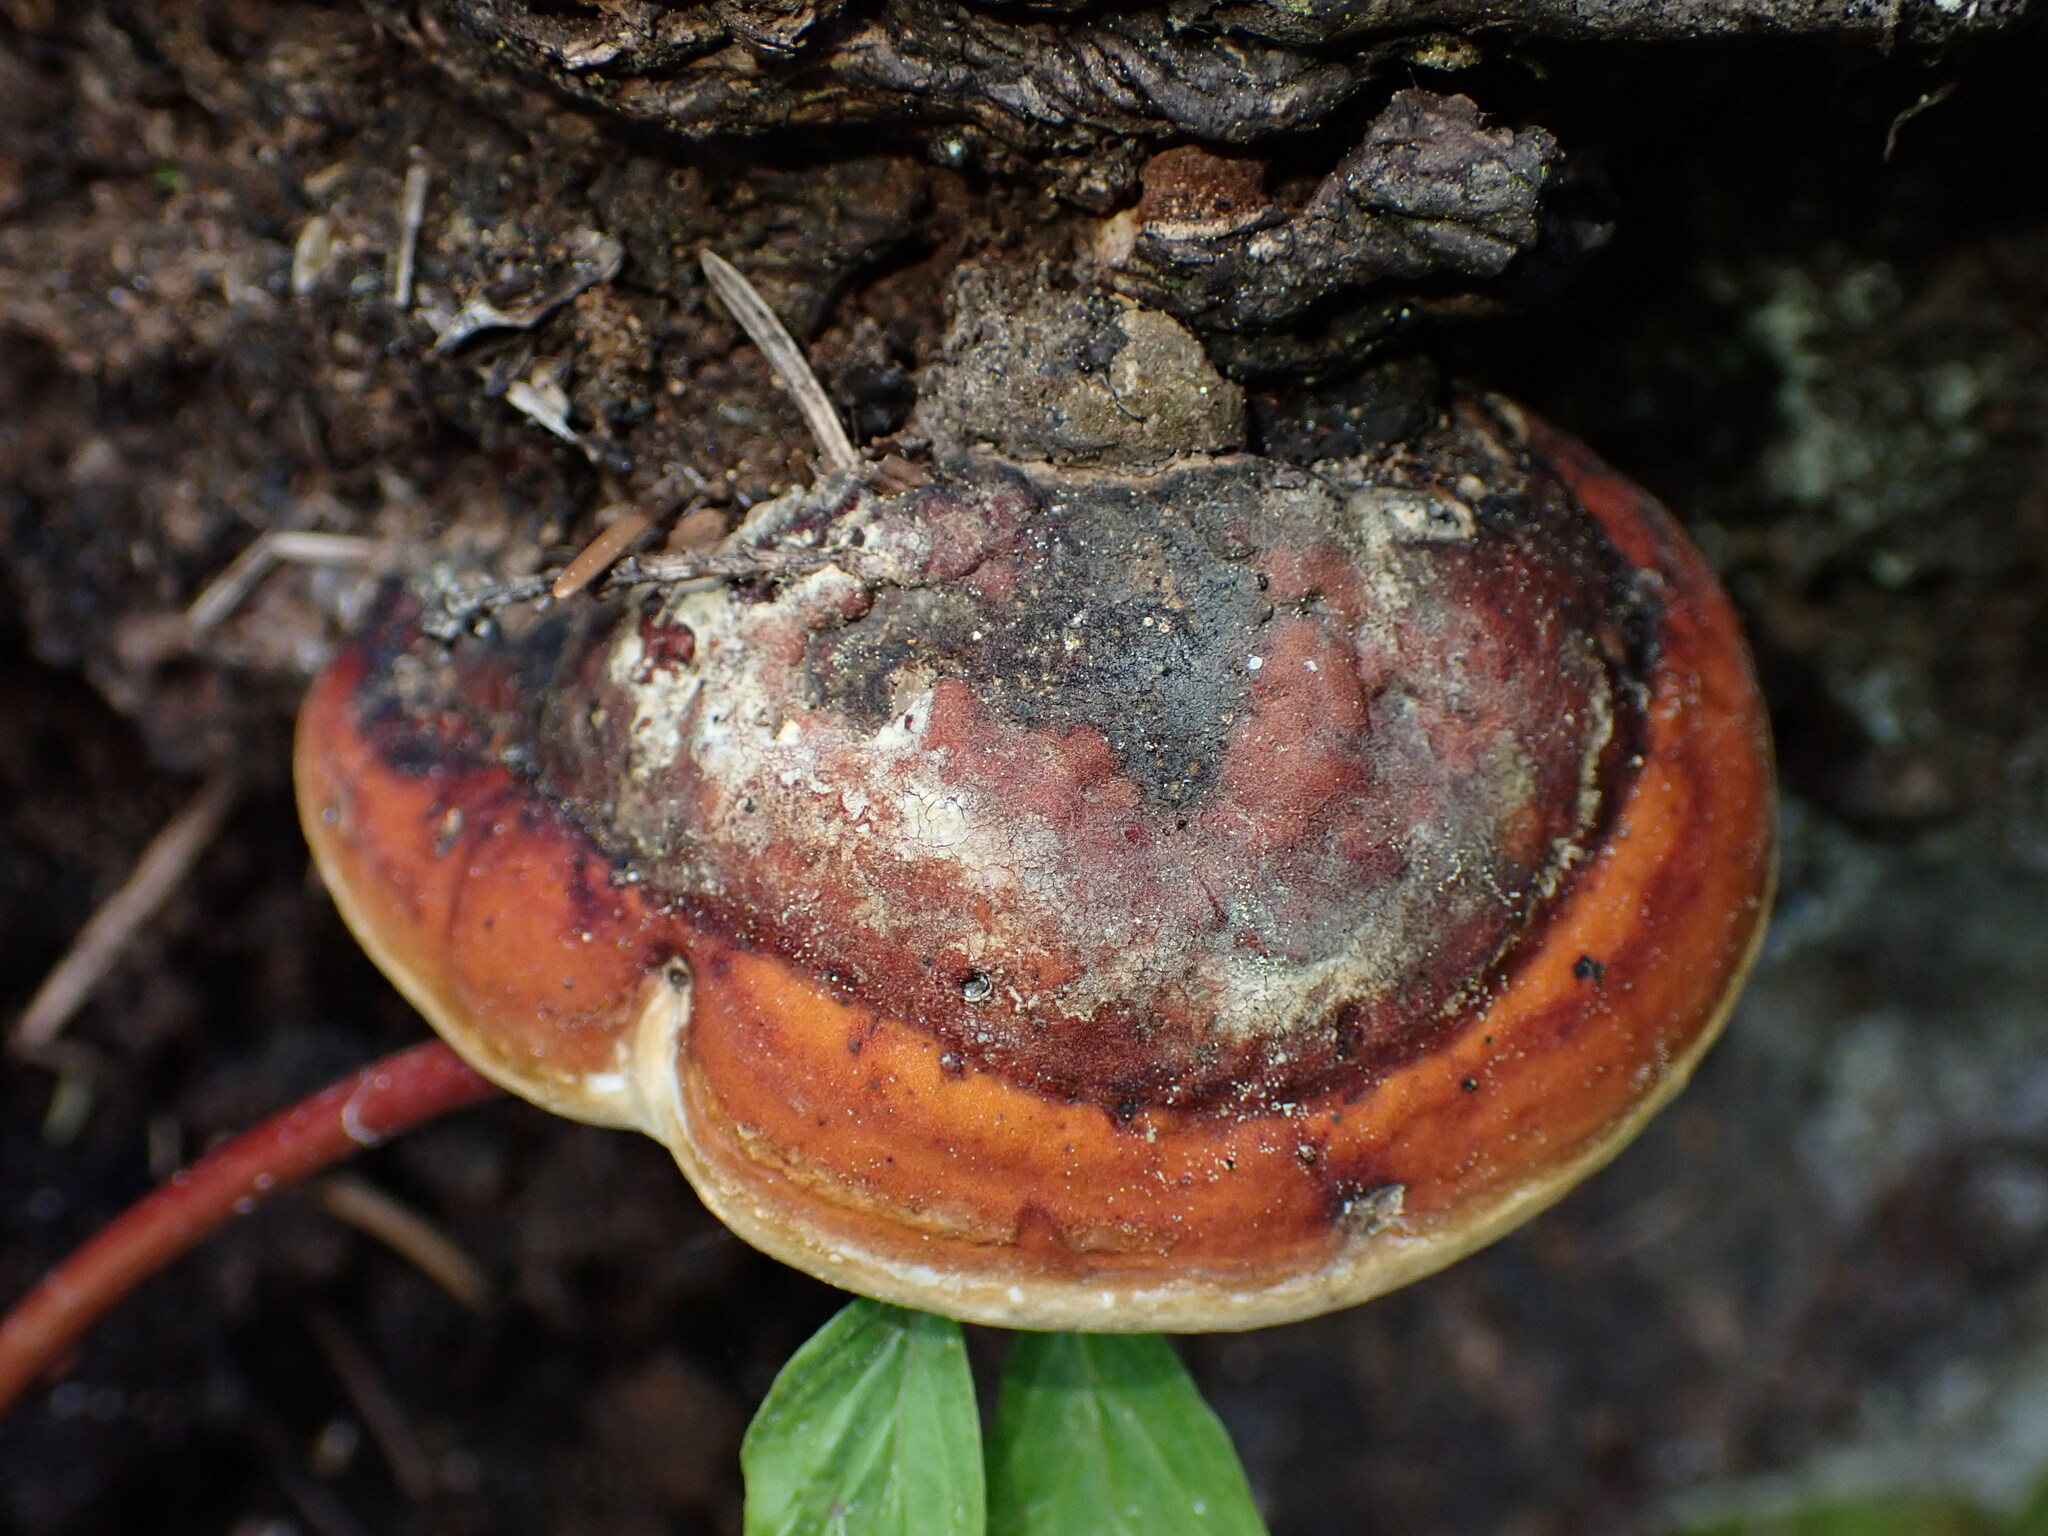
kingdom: Fungi
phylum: Basidiomycota
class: Agaricomycetes
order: Polyporales
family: Fomitopsidaceae
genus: Fomitopsis
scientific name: Fomitopsis mounceae
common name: Northern red belt
